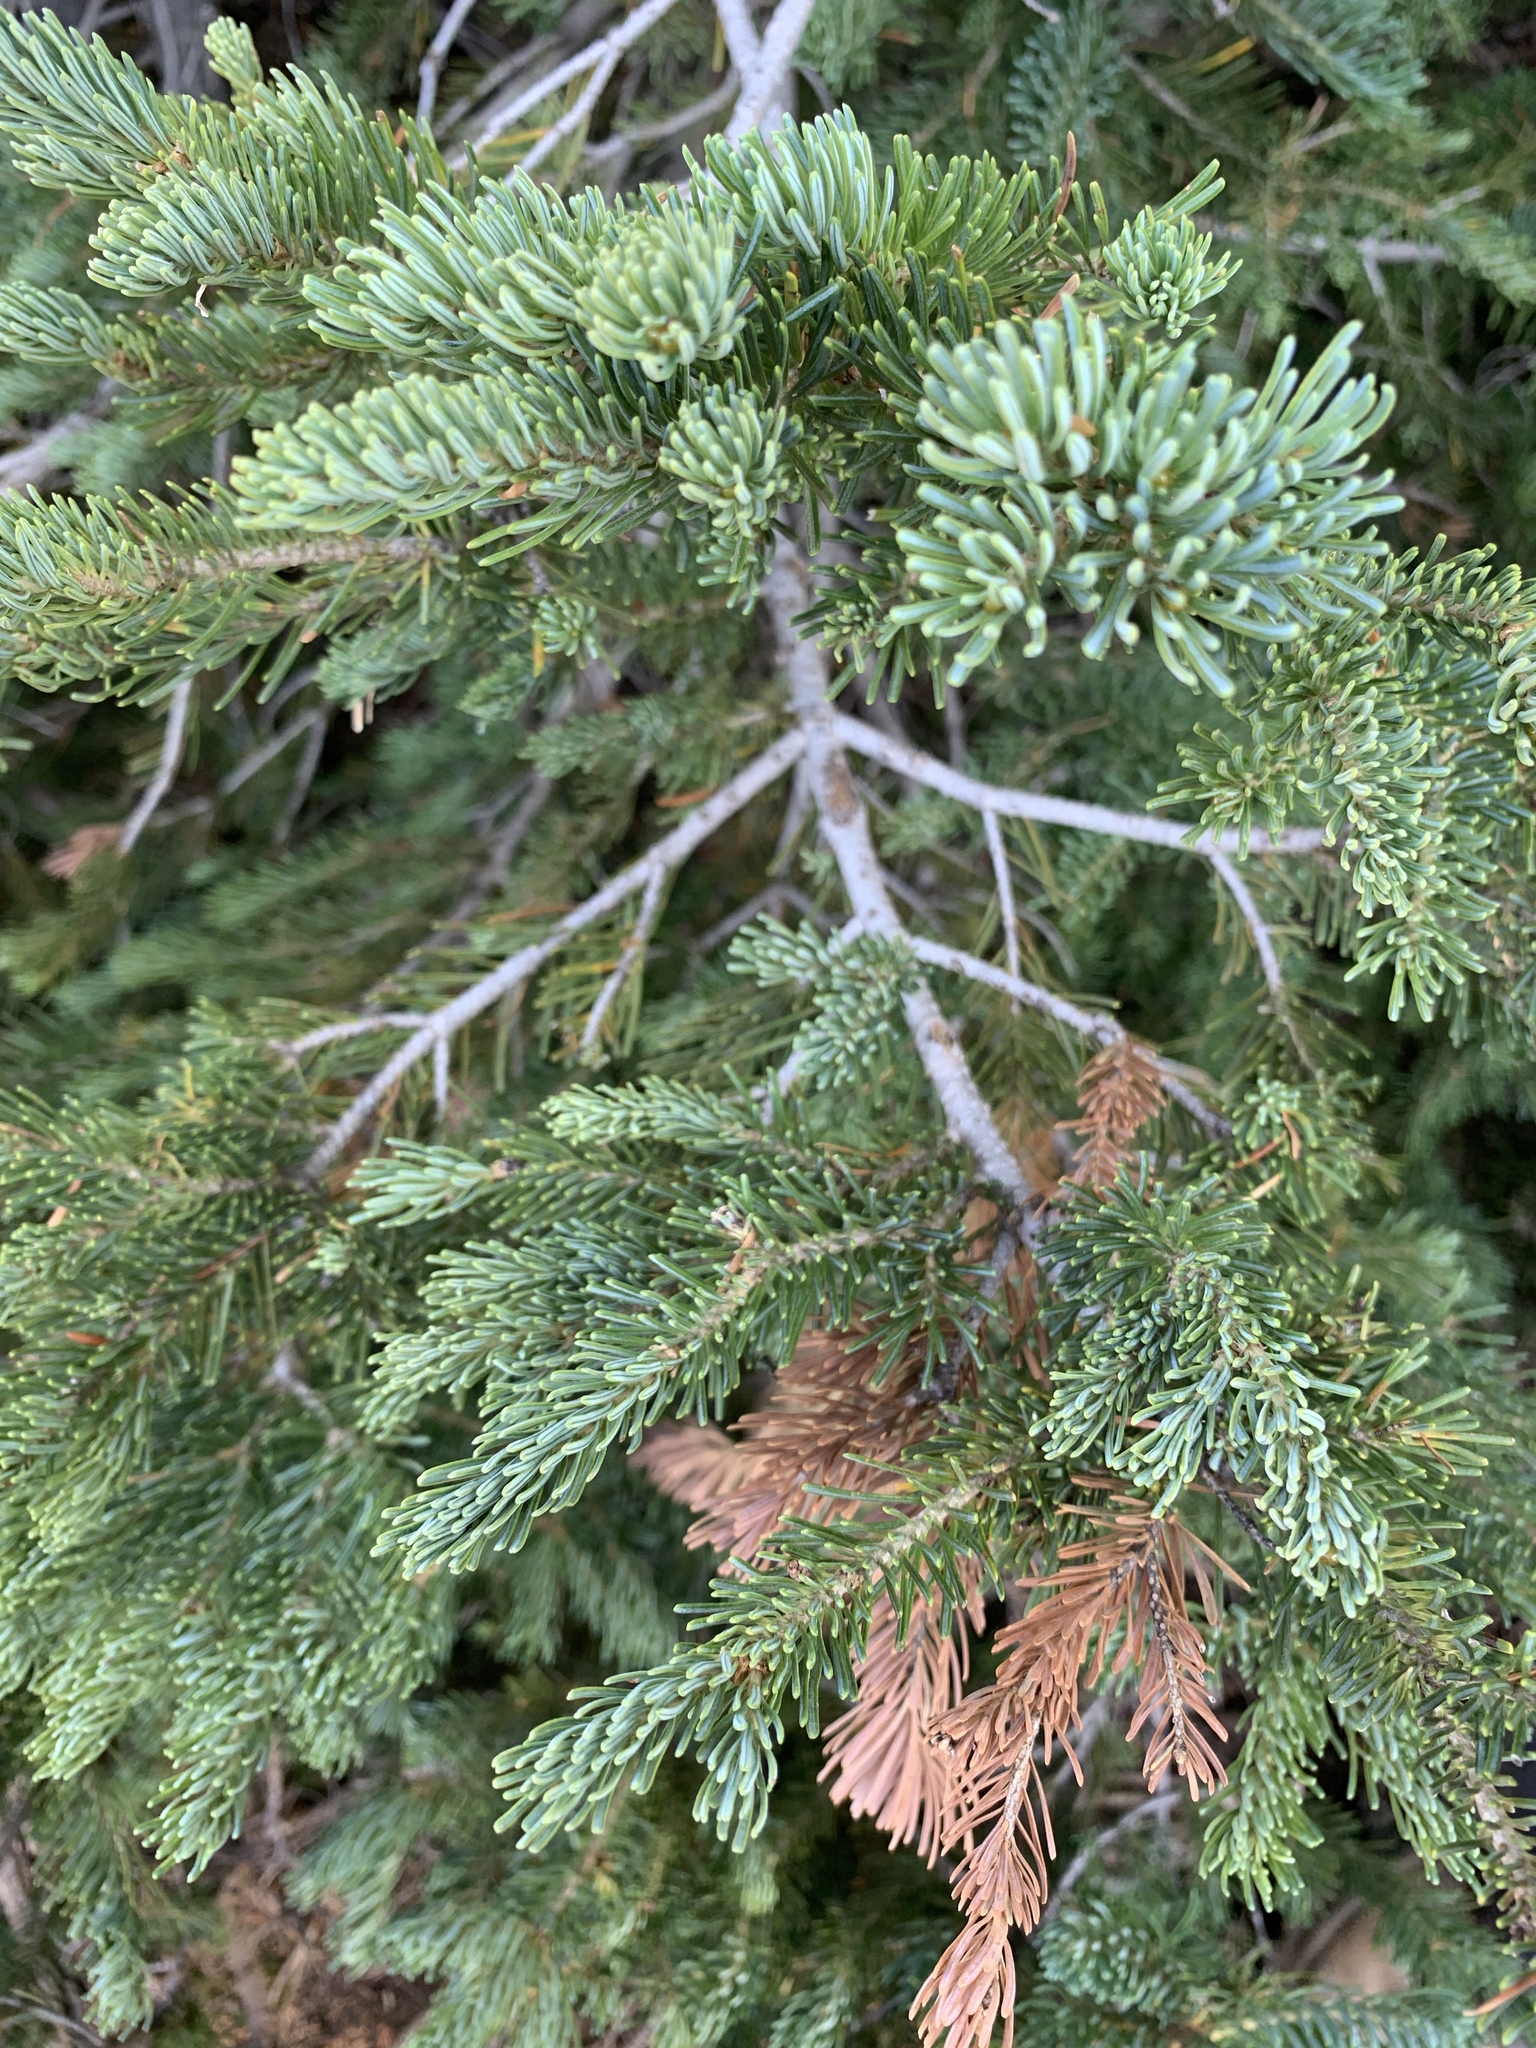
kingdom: Plantae
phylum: Tracheophyta
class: Pinopsida
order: Pinales
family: Pinaceae
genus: Abies
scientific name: Abies lasiocarpa
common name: Subalpine fir
